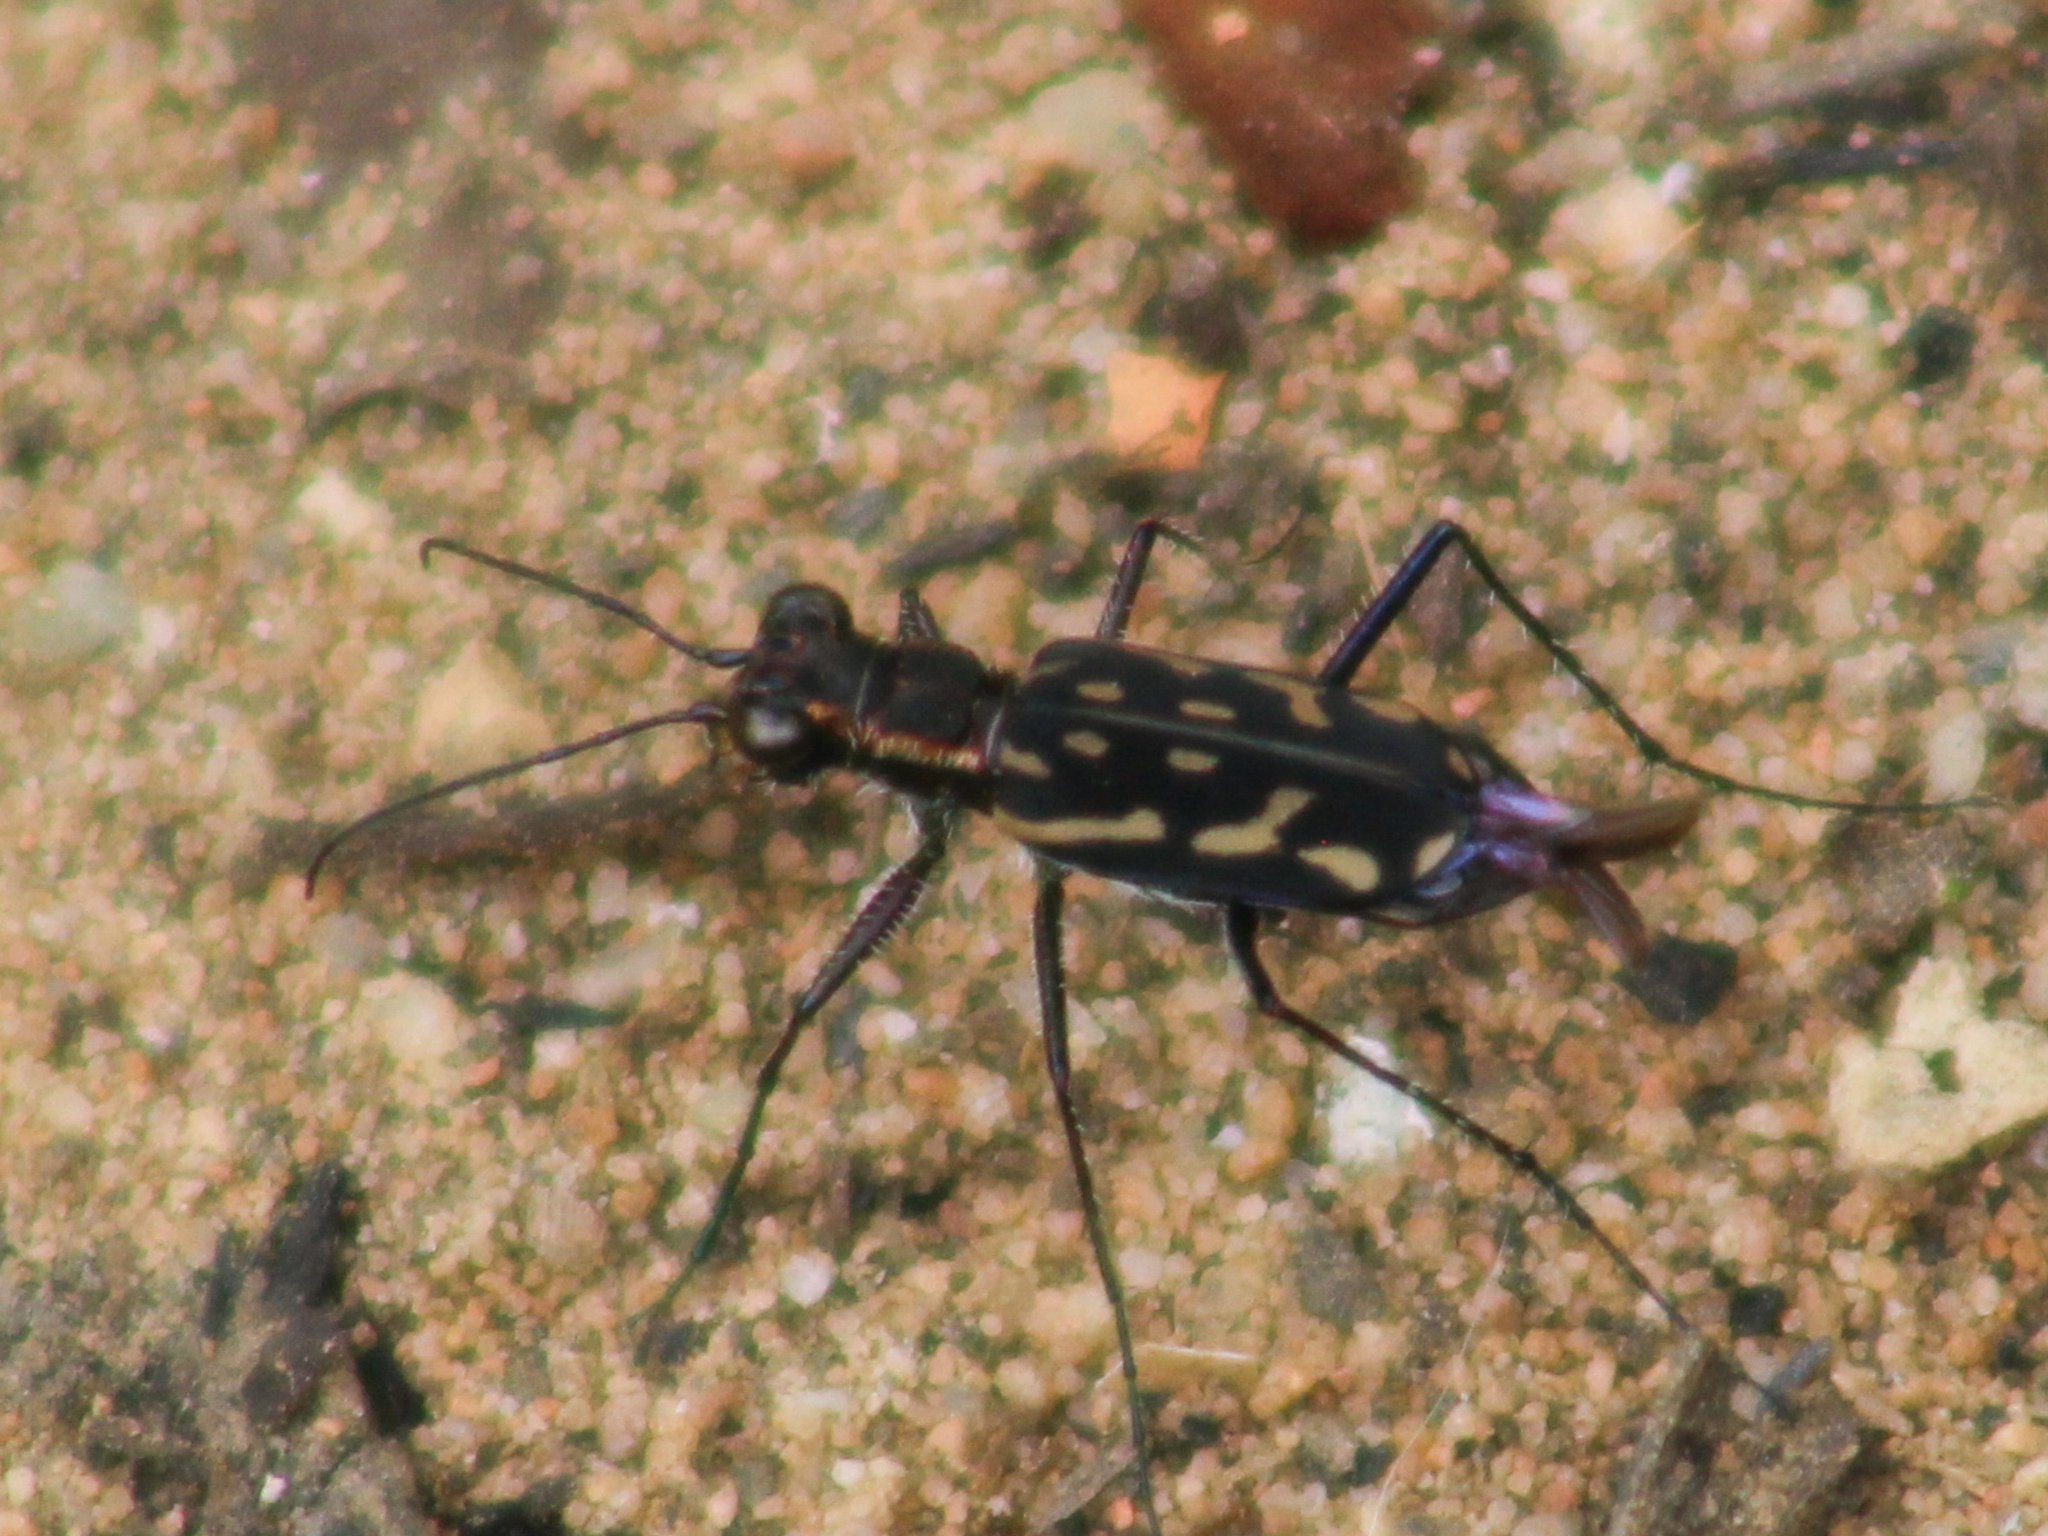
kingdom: Animalia
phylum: Arthropoda
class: Insecta
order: Coleoptera
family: Carabidae
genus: Lophyra
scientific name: Lophyra striolata
